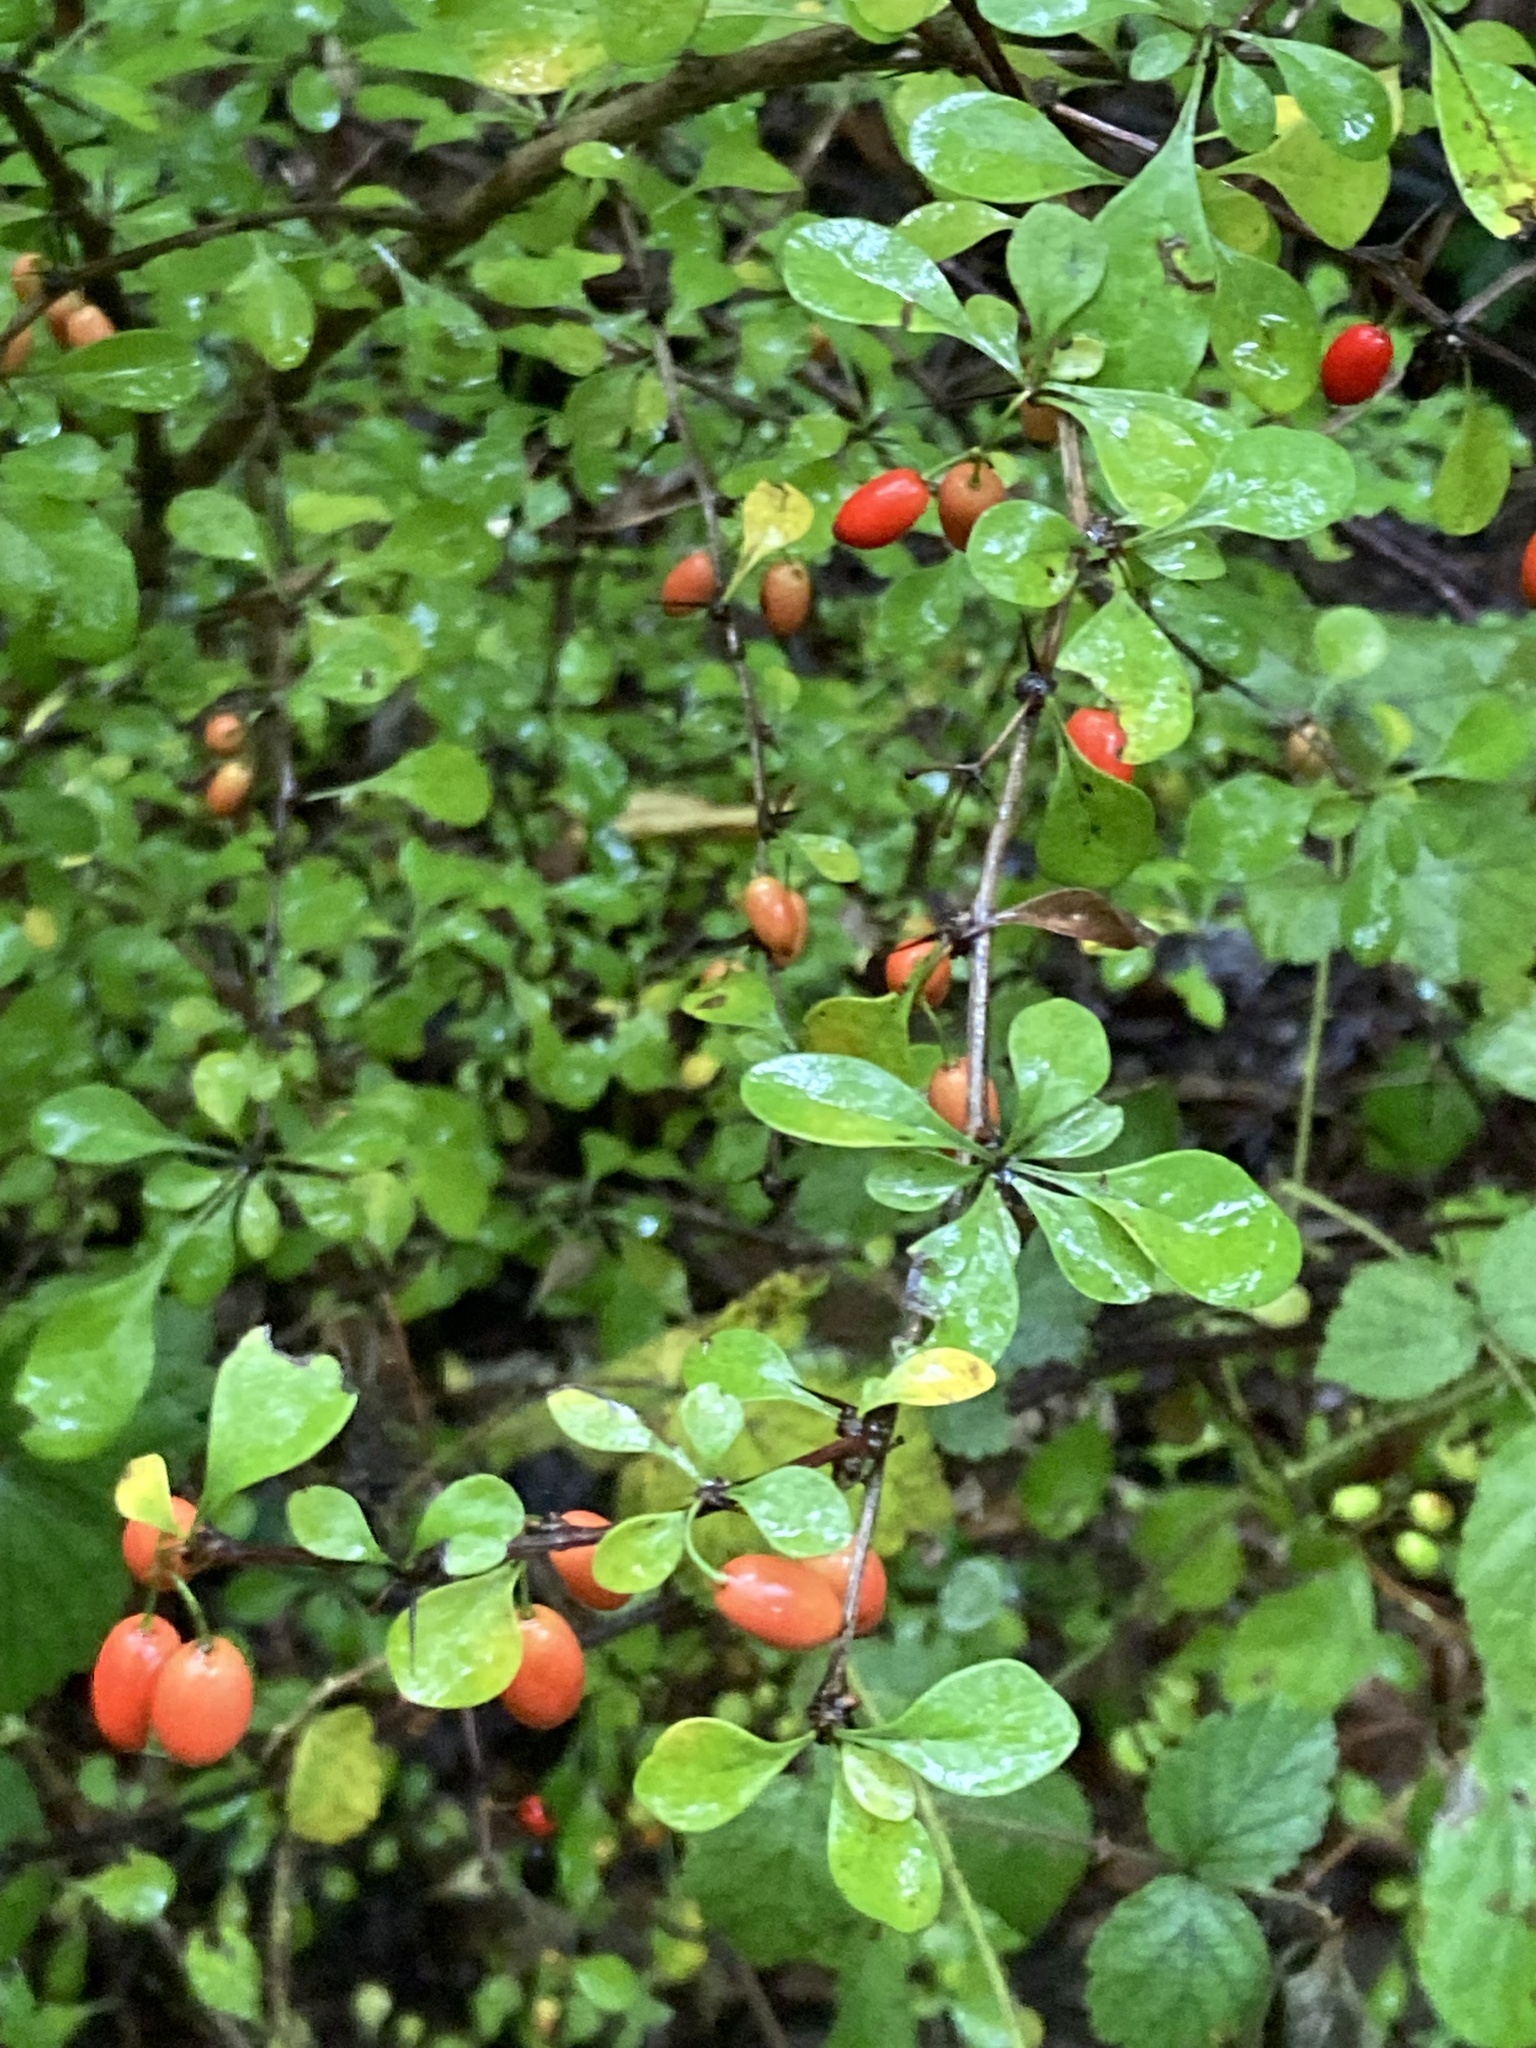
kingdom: Plantae
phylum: Tracheophyta
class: Magnoliopsida
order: Ranunculales
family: Berberidaceae
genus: Berberis
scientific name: Berberis thunbergii
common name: Japanese barberry
